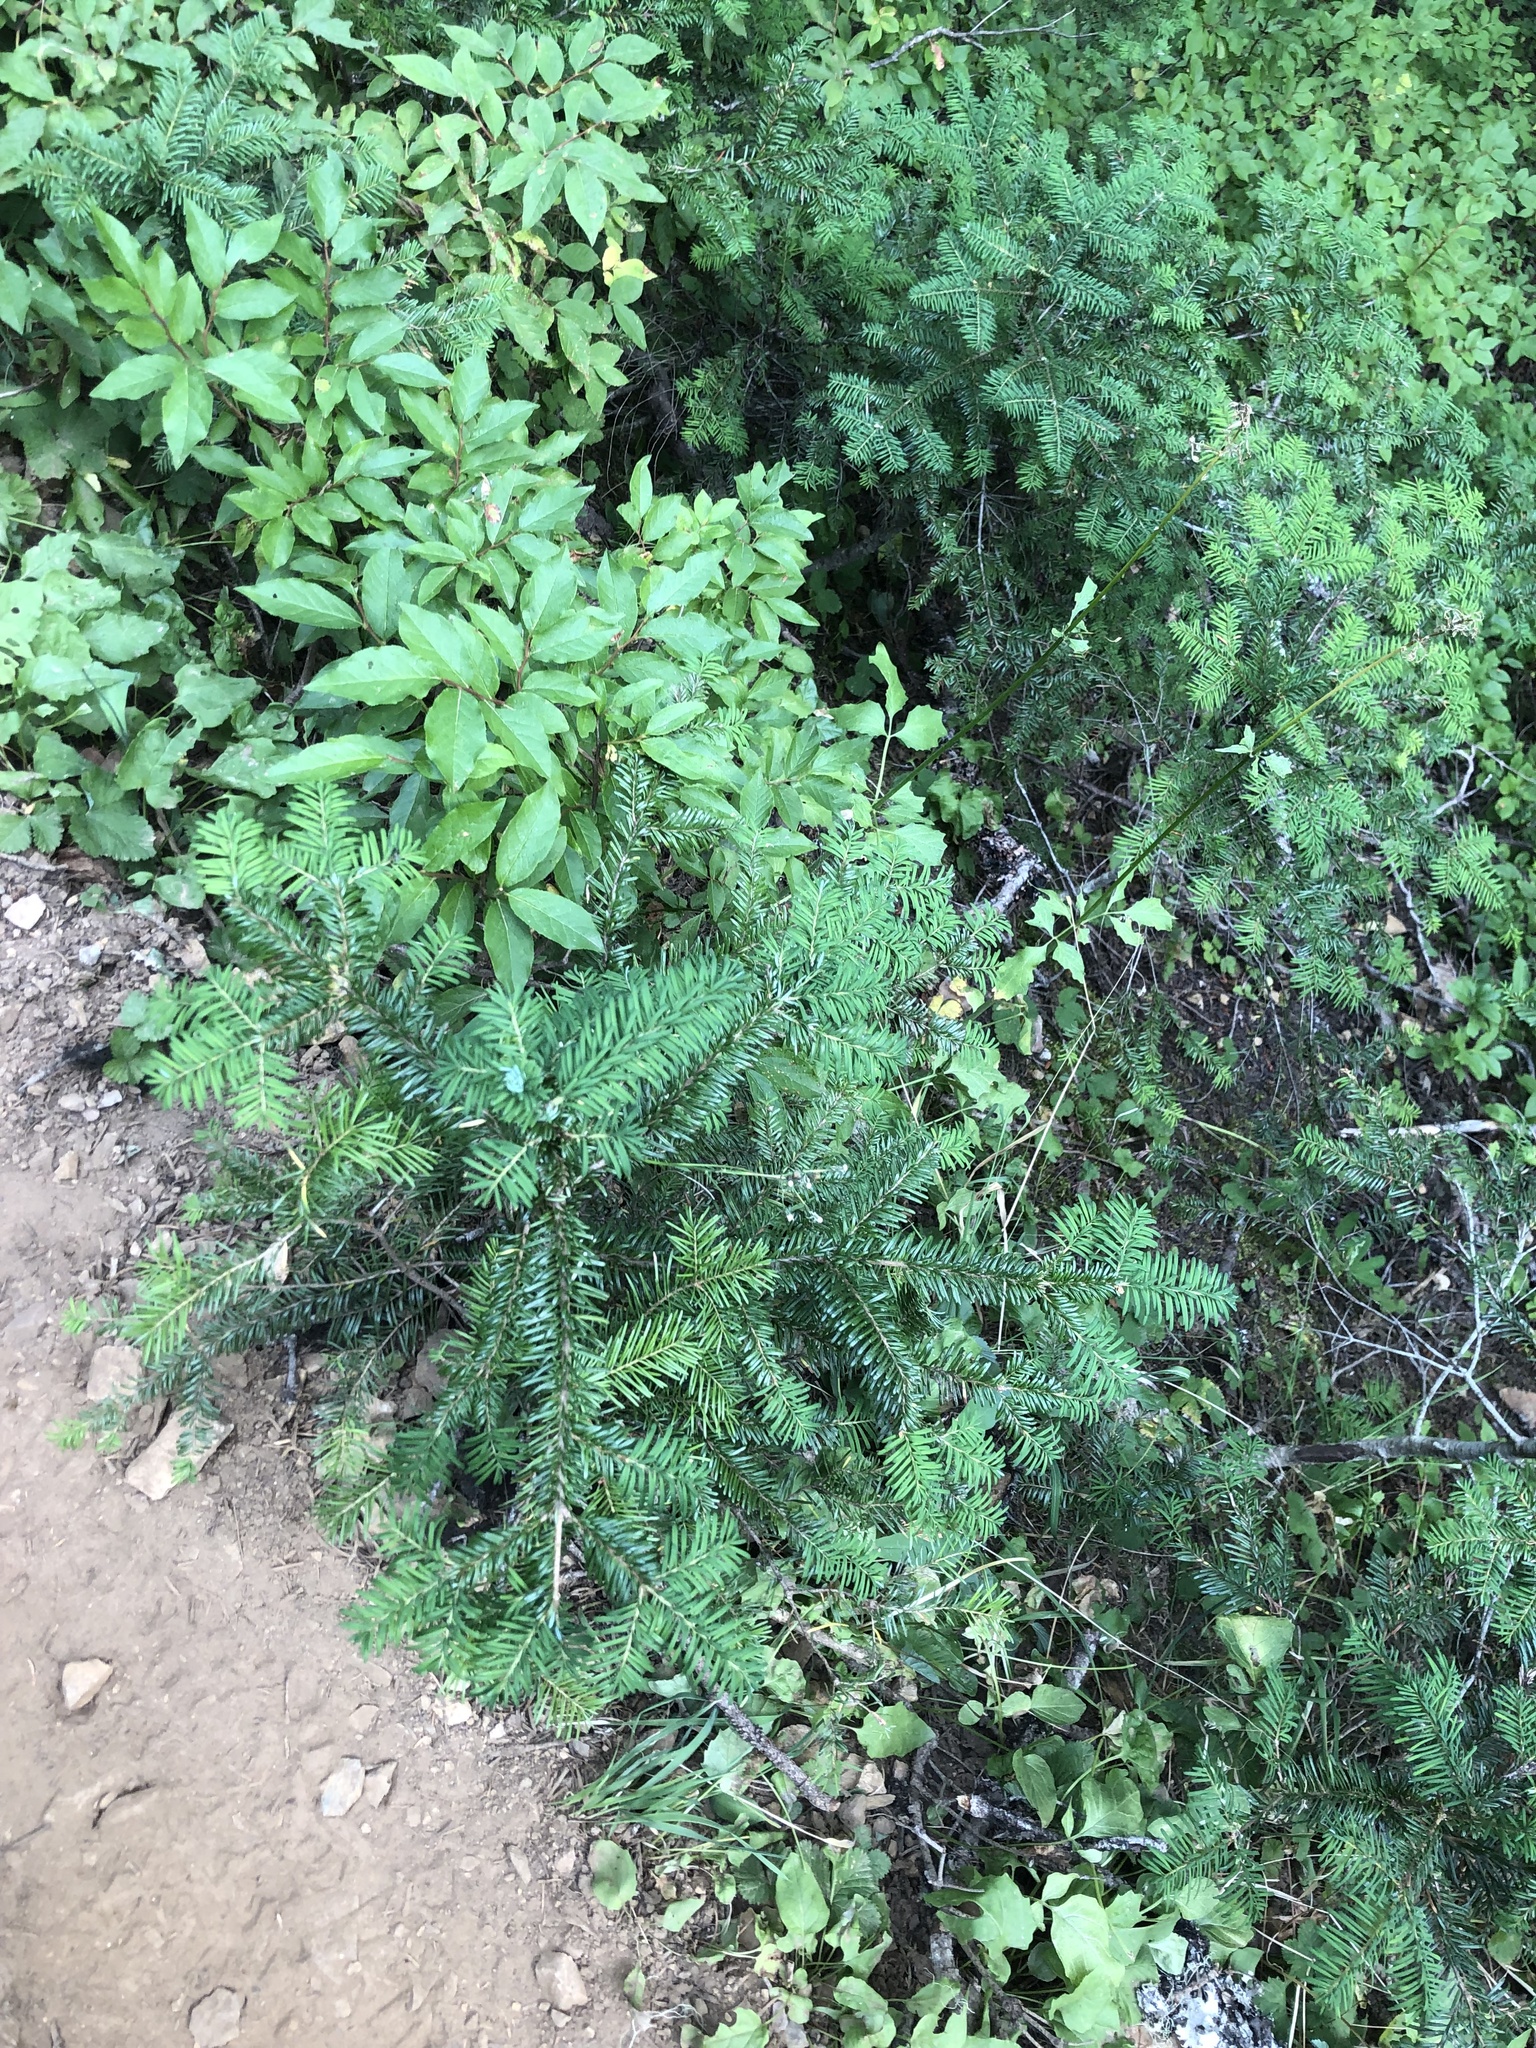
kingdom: Plantae
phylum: Tracheophyta
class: Pinopsida
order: Pinales
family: Pinaceae
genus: Abies
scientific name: Abies amabilis
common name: Pacific silver fir
